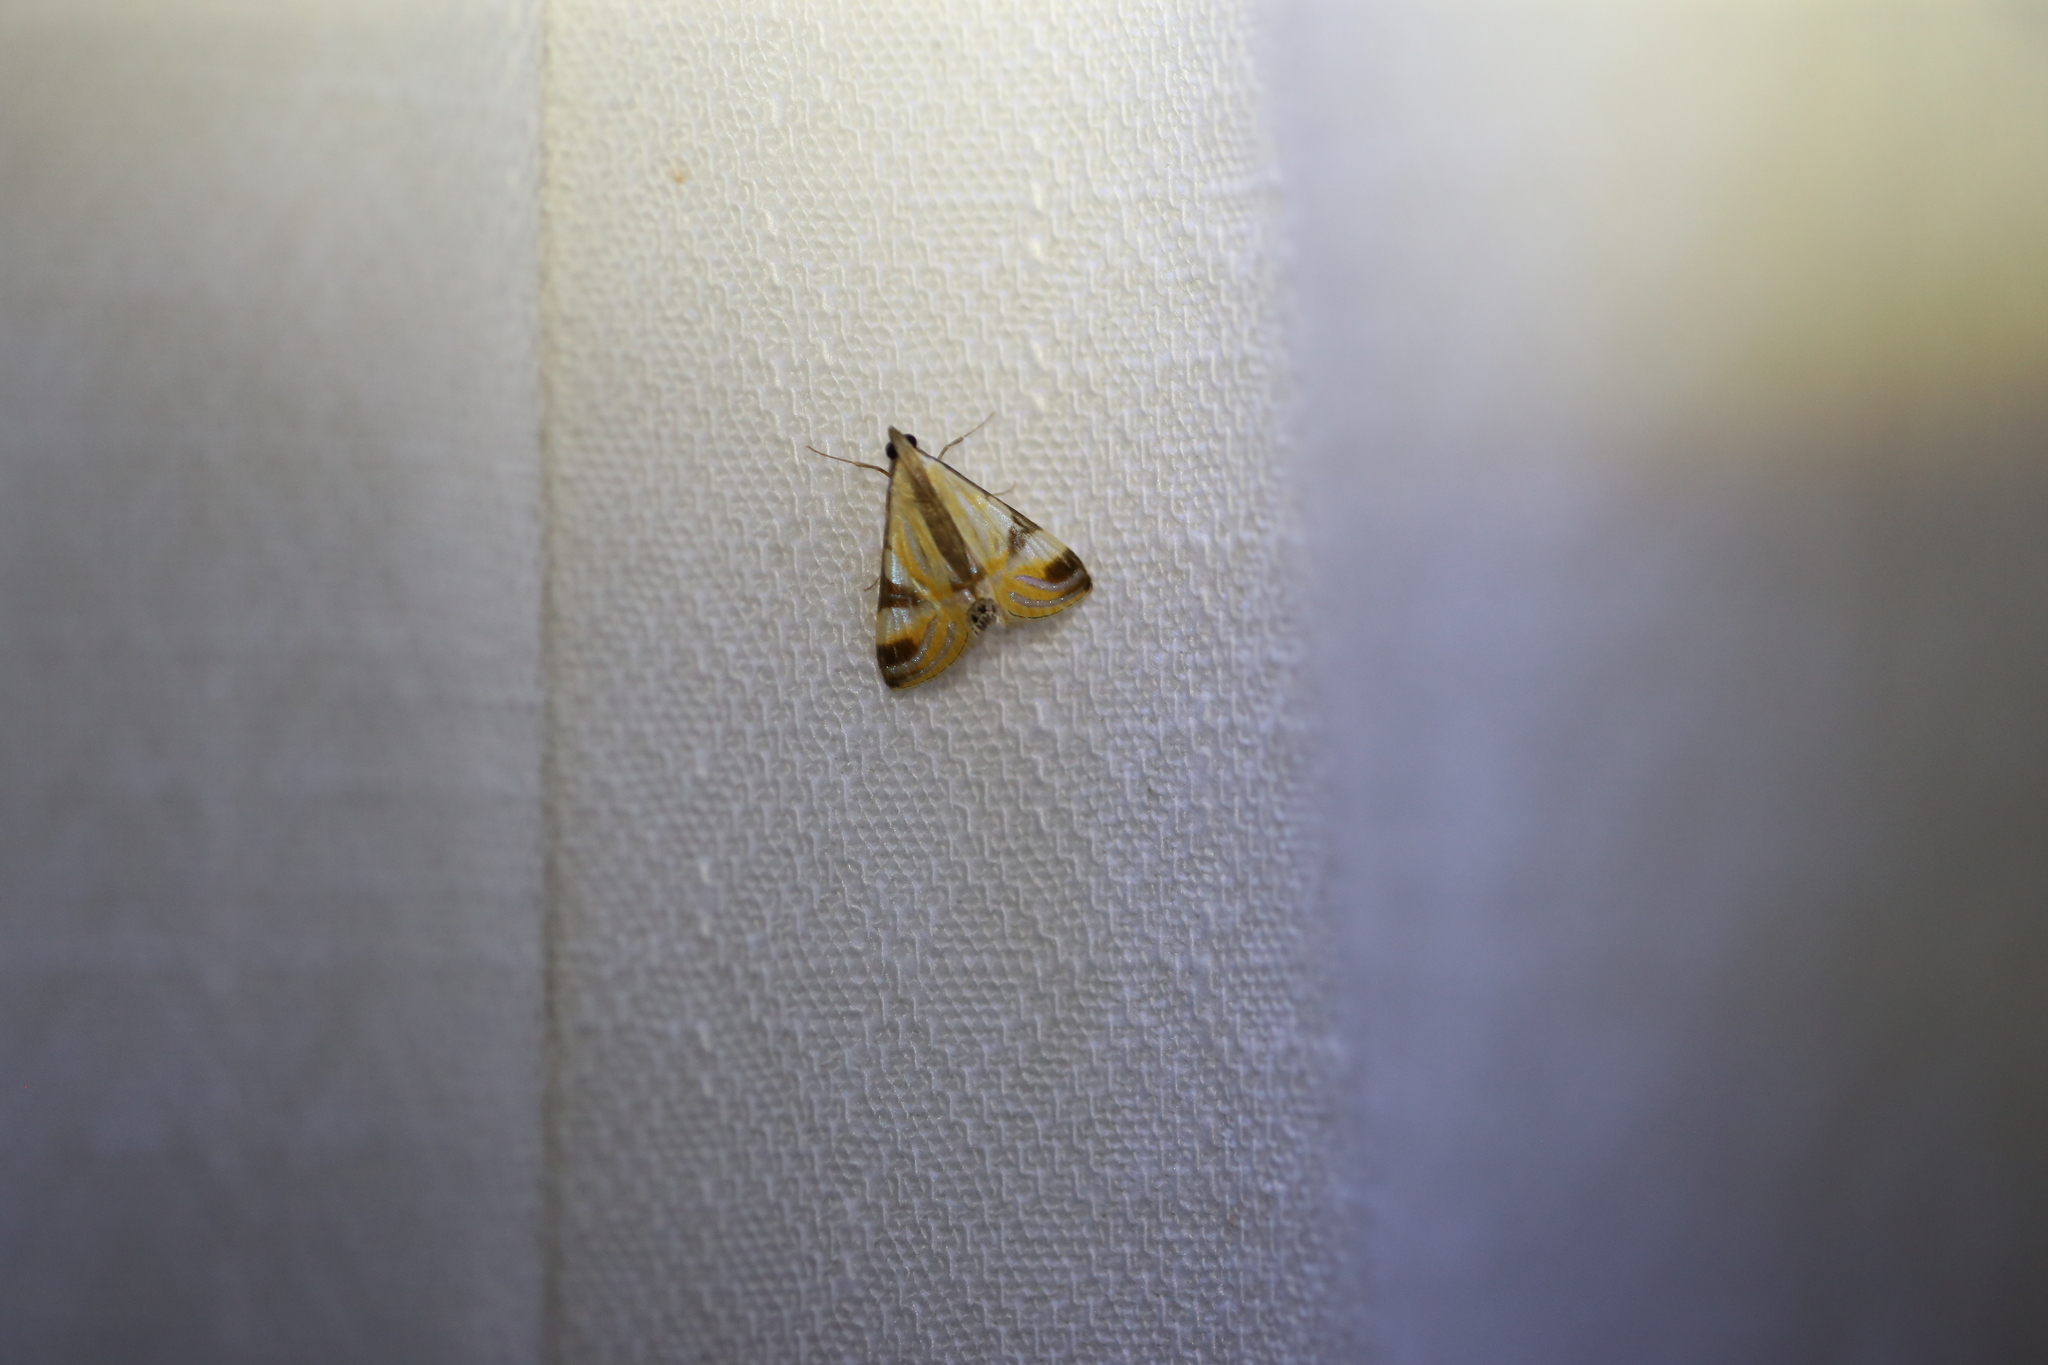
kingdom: Animalia
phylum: Arthropoda
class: Insecta
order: Lepidoptera
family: Crambidae
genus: Talanga
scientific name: Talanga tolumnialis
